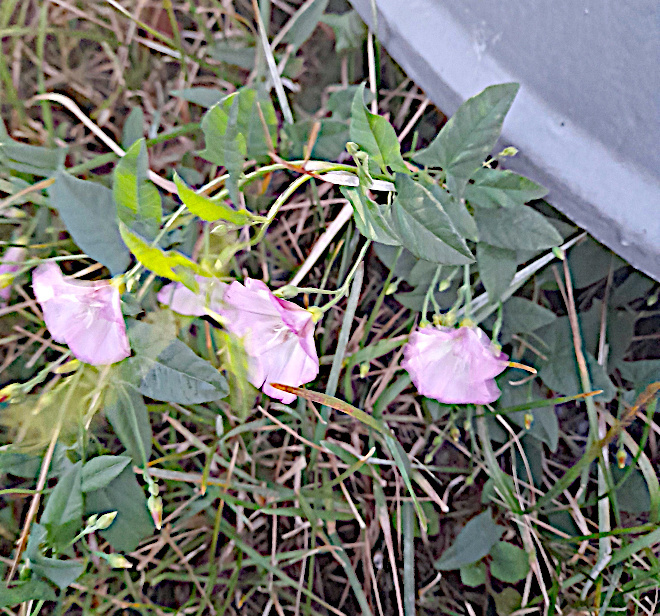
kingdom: Plantae
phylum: Tracheophyta
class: Magnoliopsida
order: Solanales
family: Convolvulaceae
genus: Convolvulus
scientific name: Convolvulus arvensis
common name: Field bindweed
